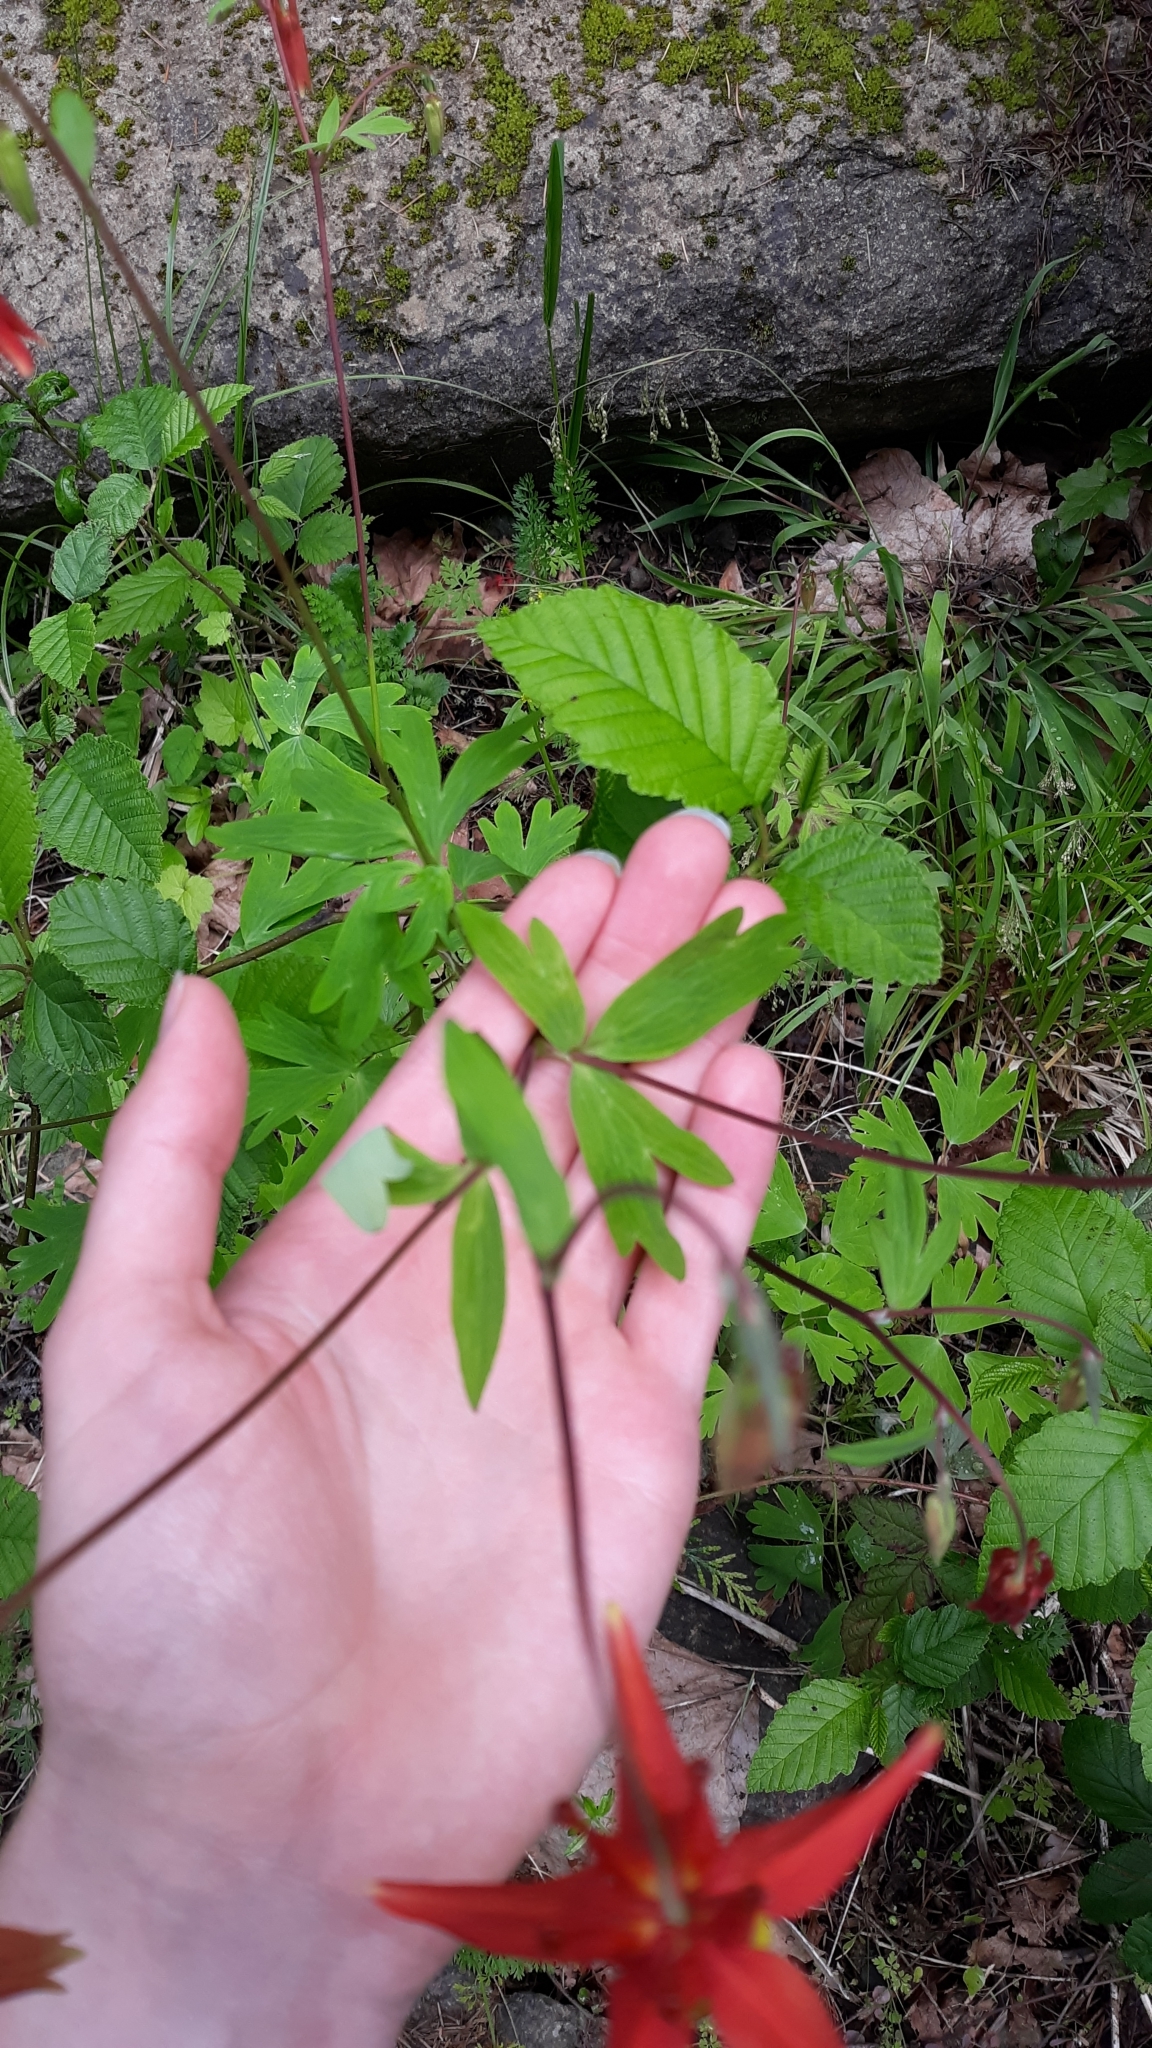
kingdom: Plantae
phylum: Tracheophyta
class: Magnoliopsida
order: Ranunculales
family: Ranunculaceae
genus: Aquilegia
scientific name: Aquilegia formosa
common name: Sitka columbine
